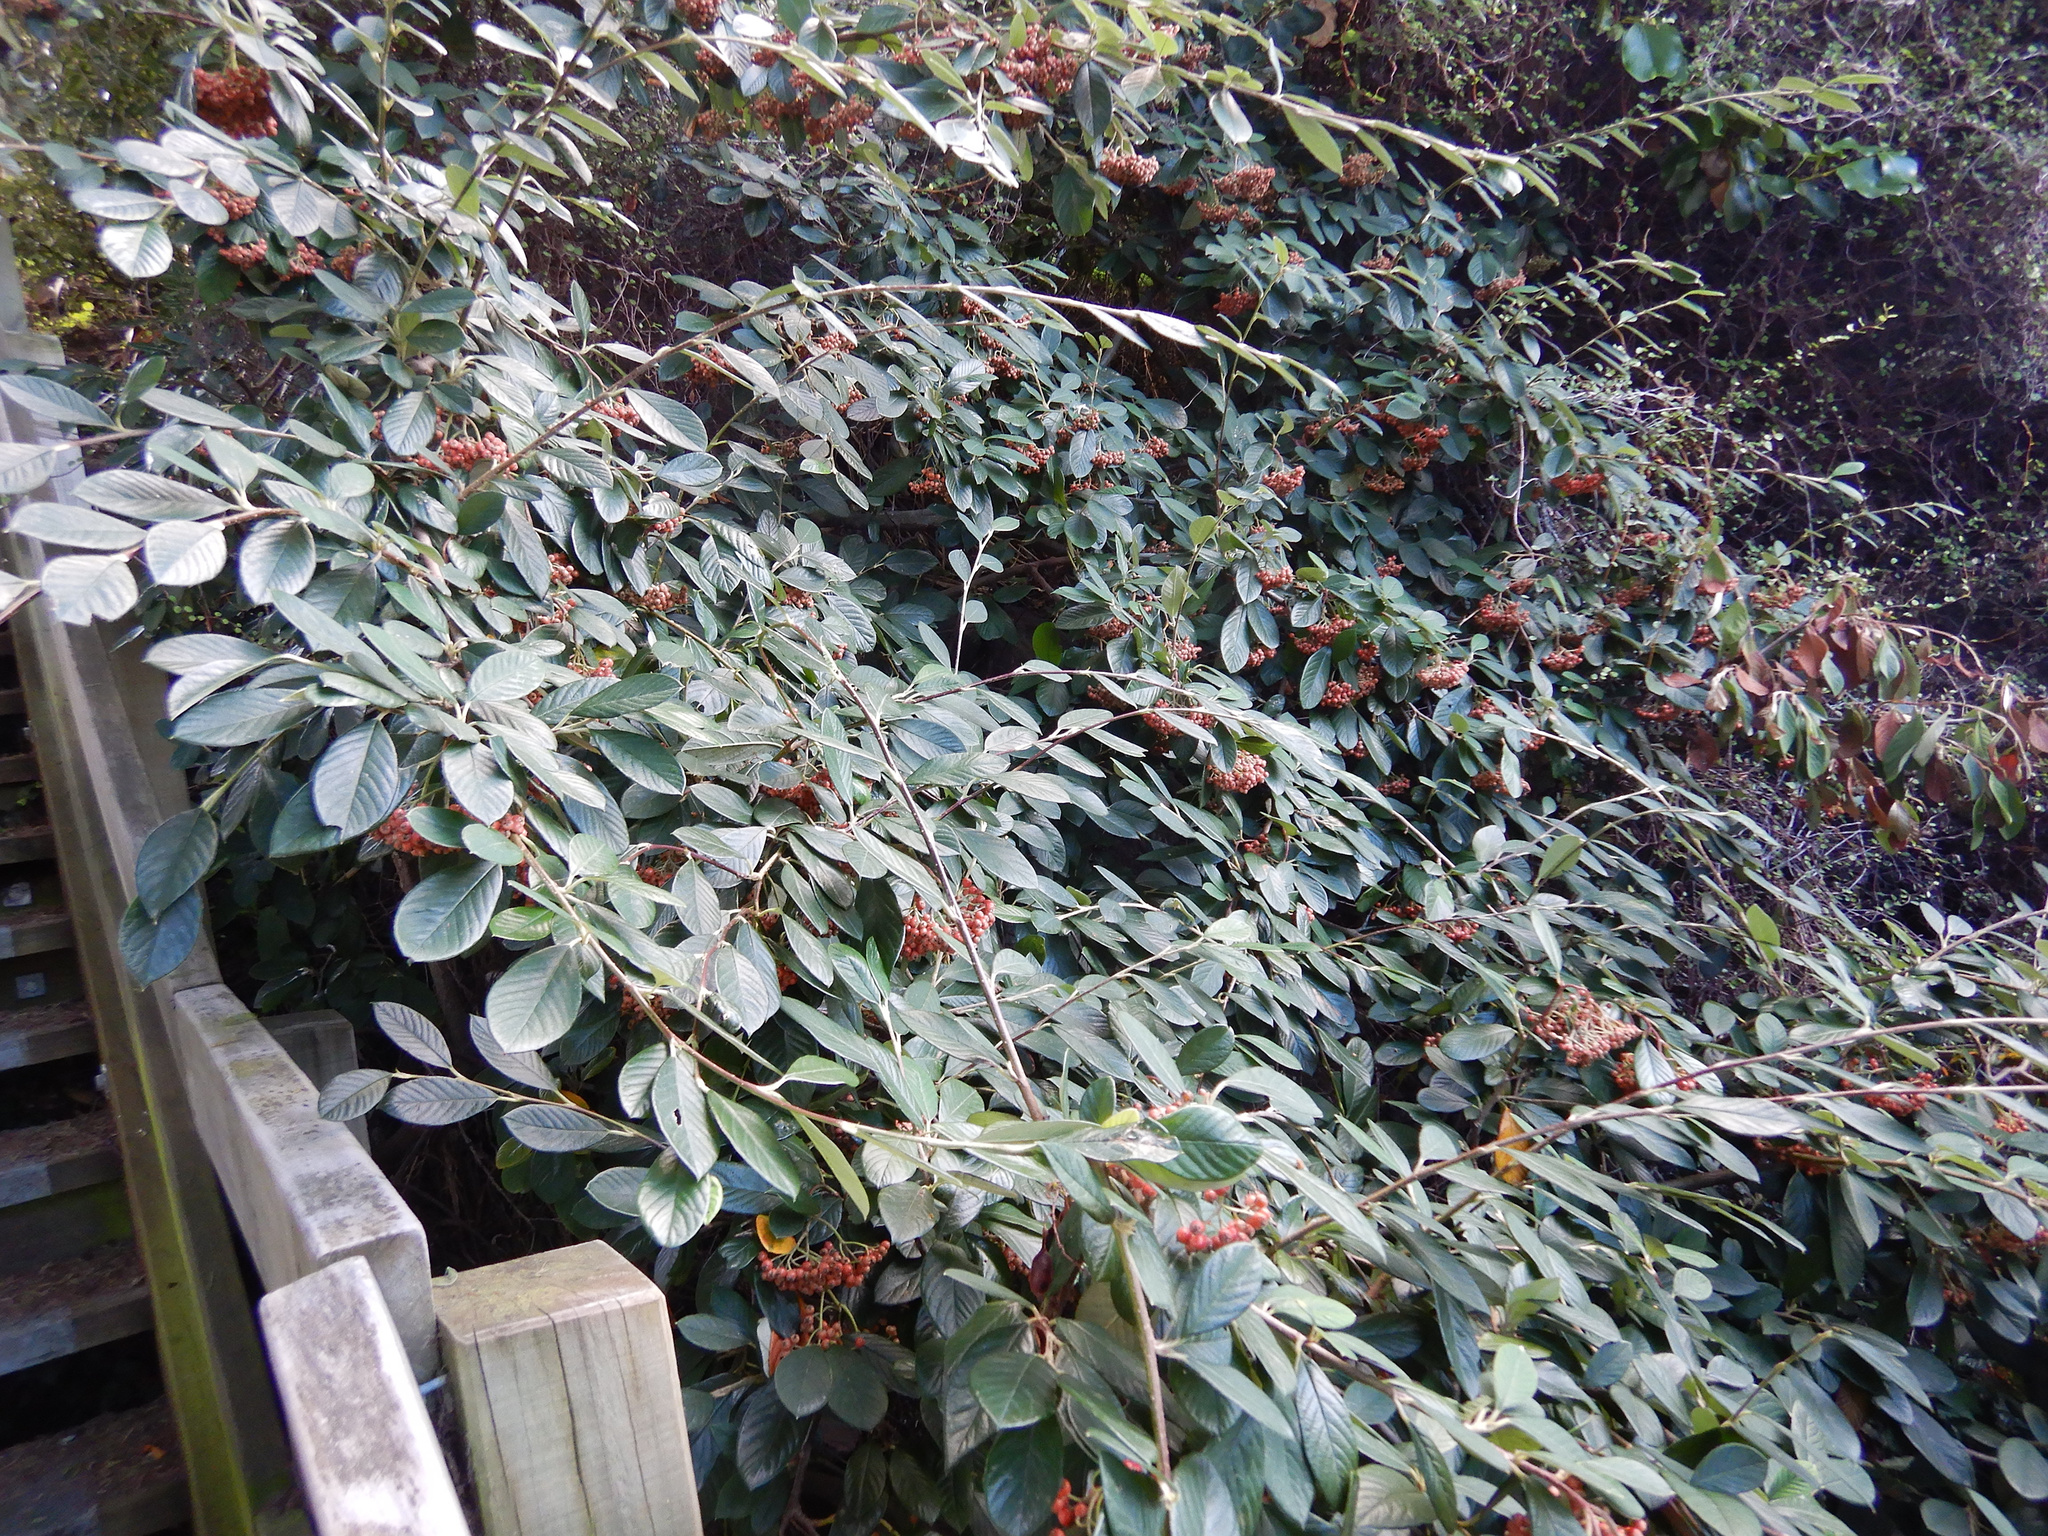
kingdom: Plantae
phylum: Tracheophyta
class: Magnoliopsida
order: Rosales
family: Rosaceae
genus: Cotoneaster
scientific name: Cotoneaster coriaceus
